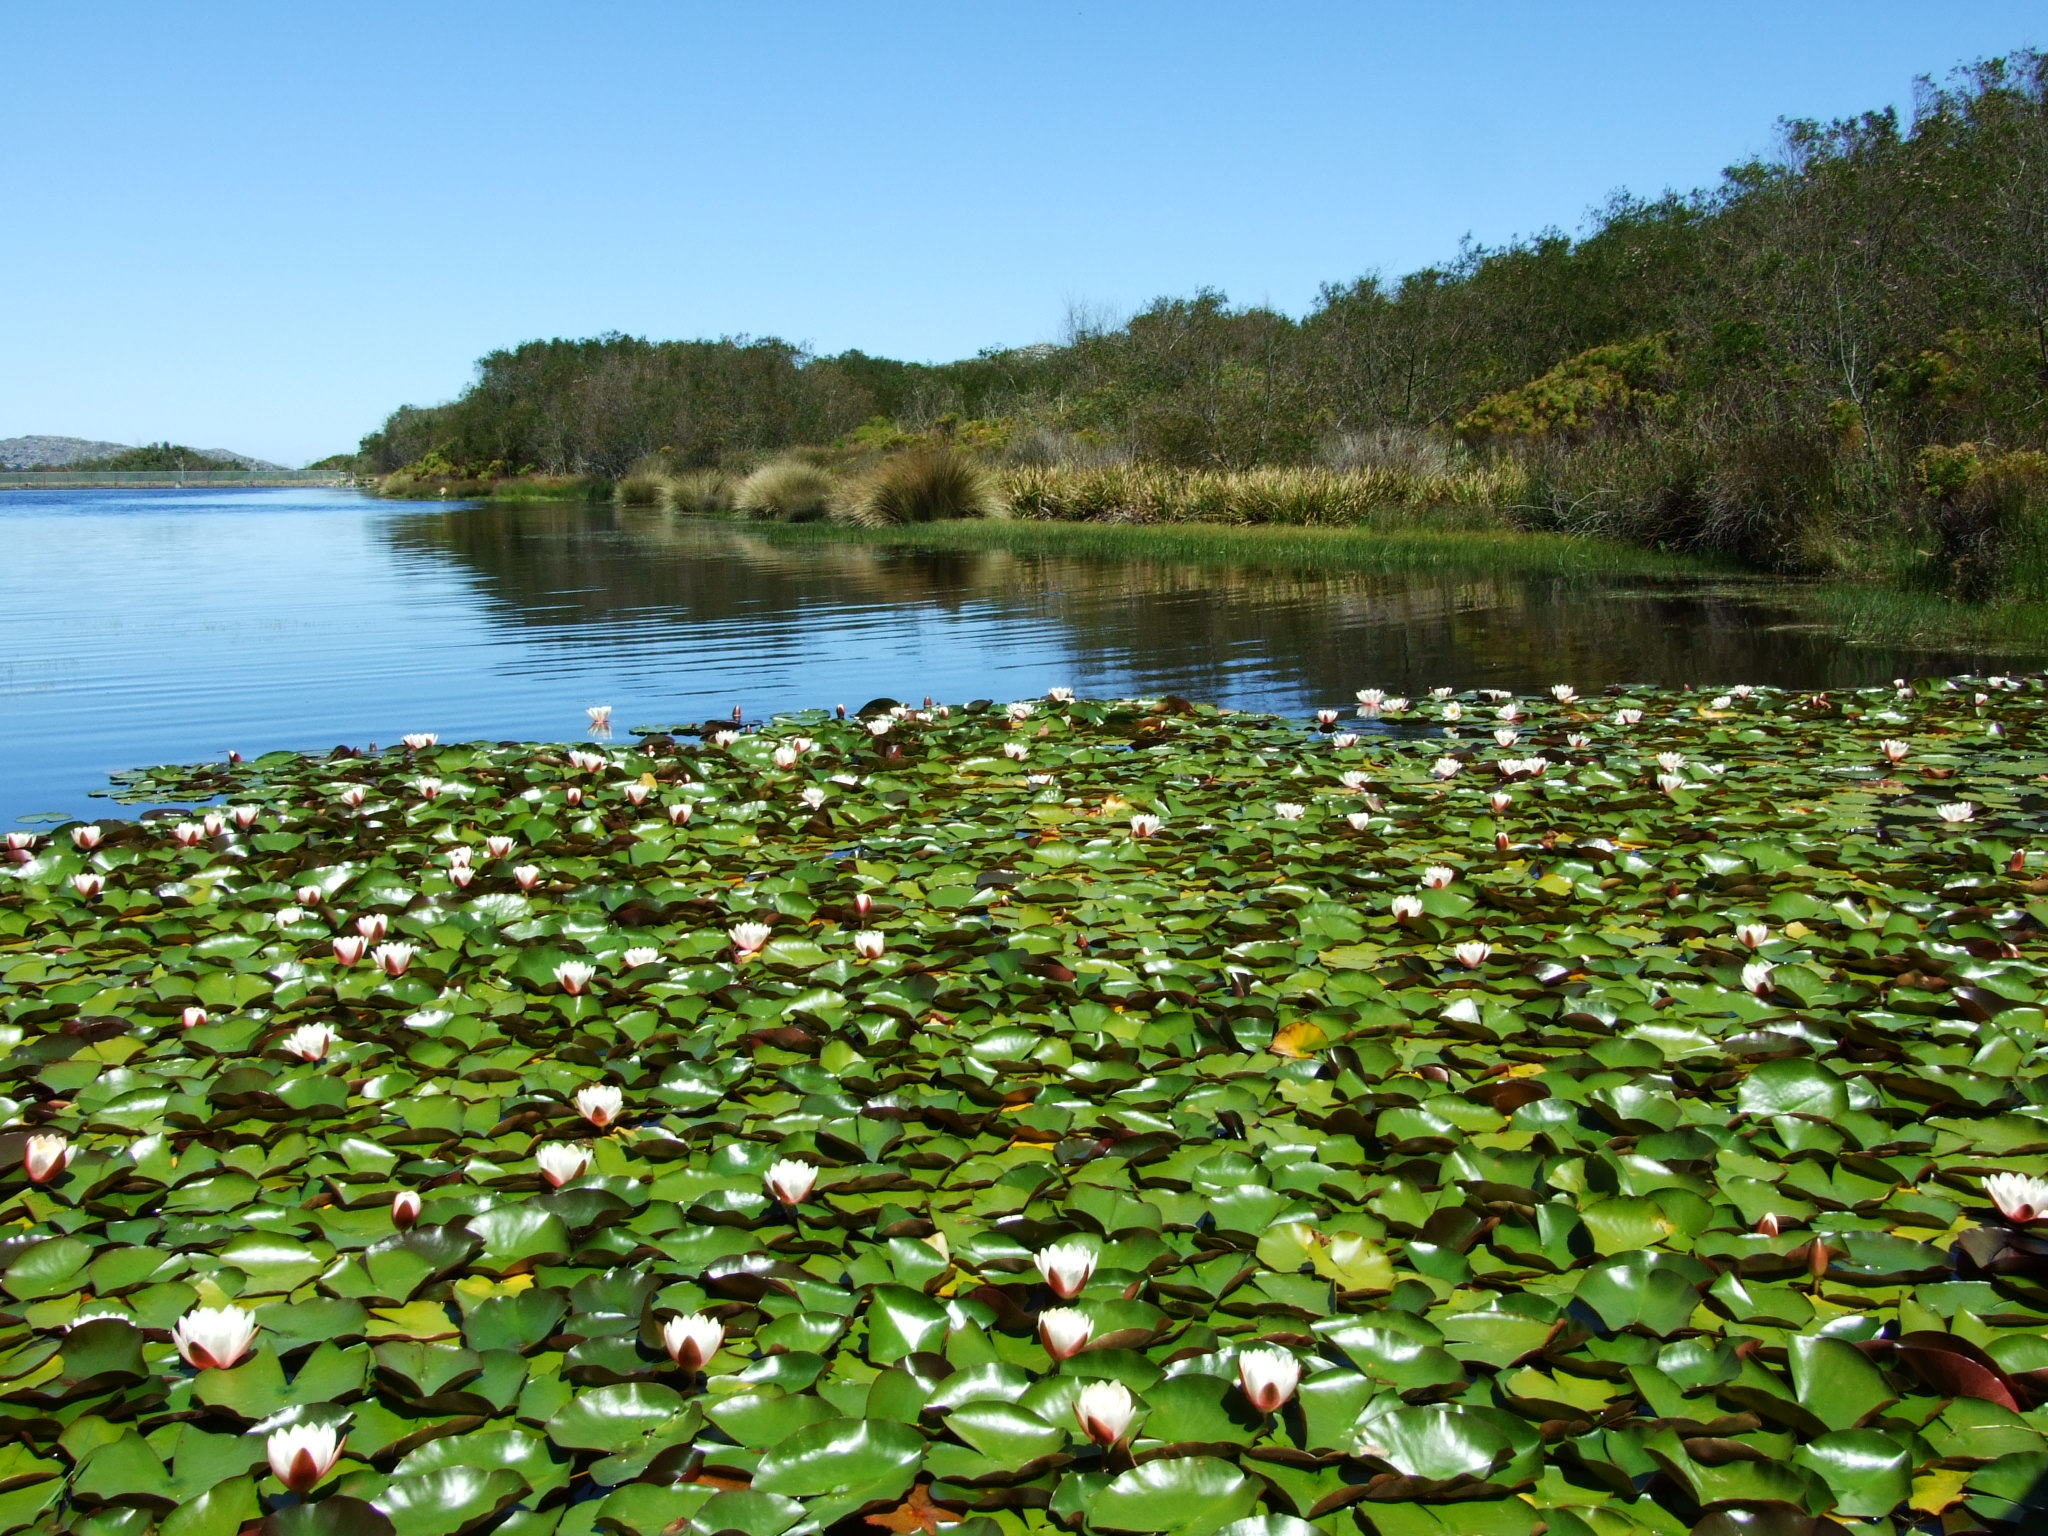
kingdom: Plantae
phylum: Tracheophyta
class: Magnoliopsida
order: Nymphaeales
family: Nymphaeaceae
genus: Nymphaea
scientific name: Nymphaea alba
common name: White water-lily
